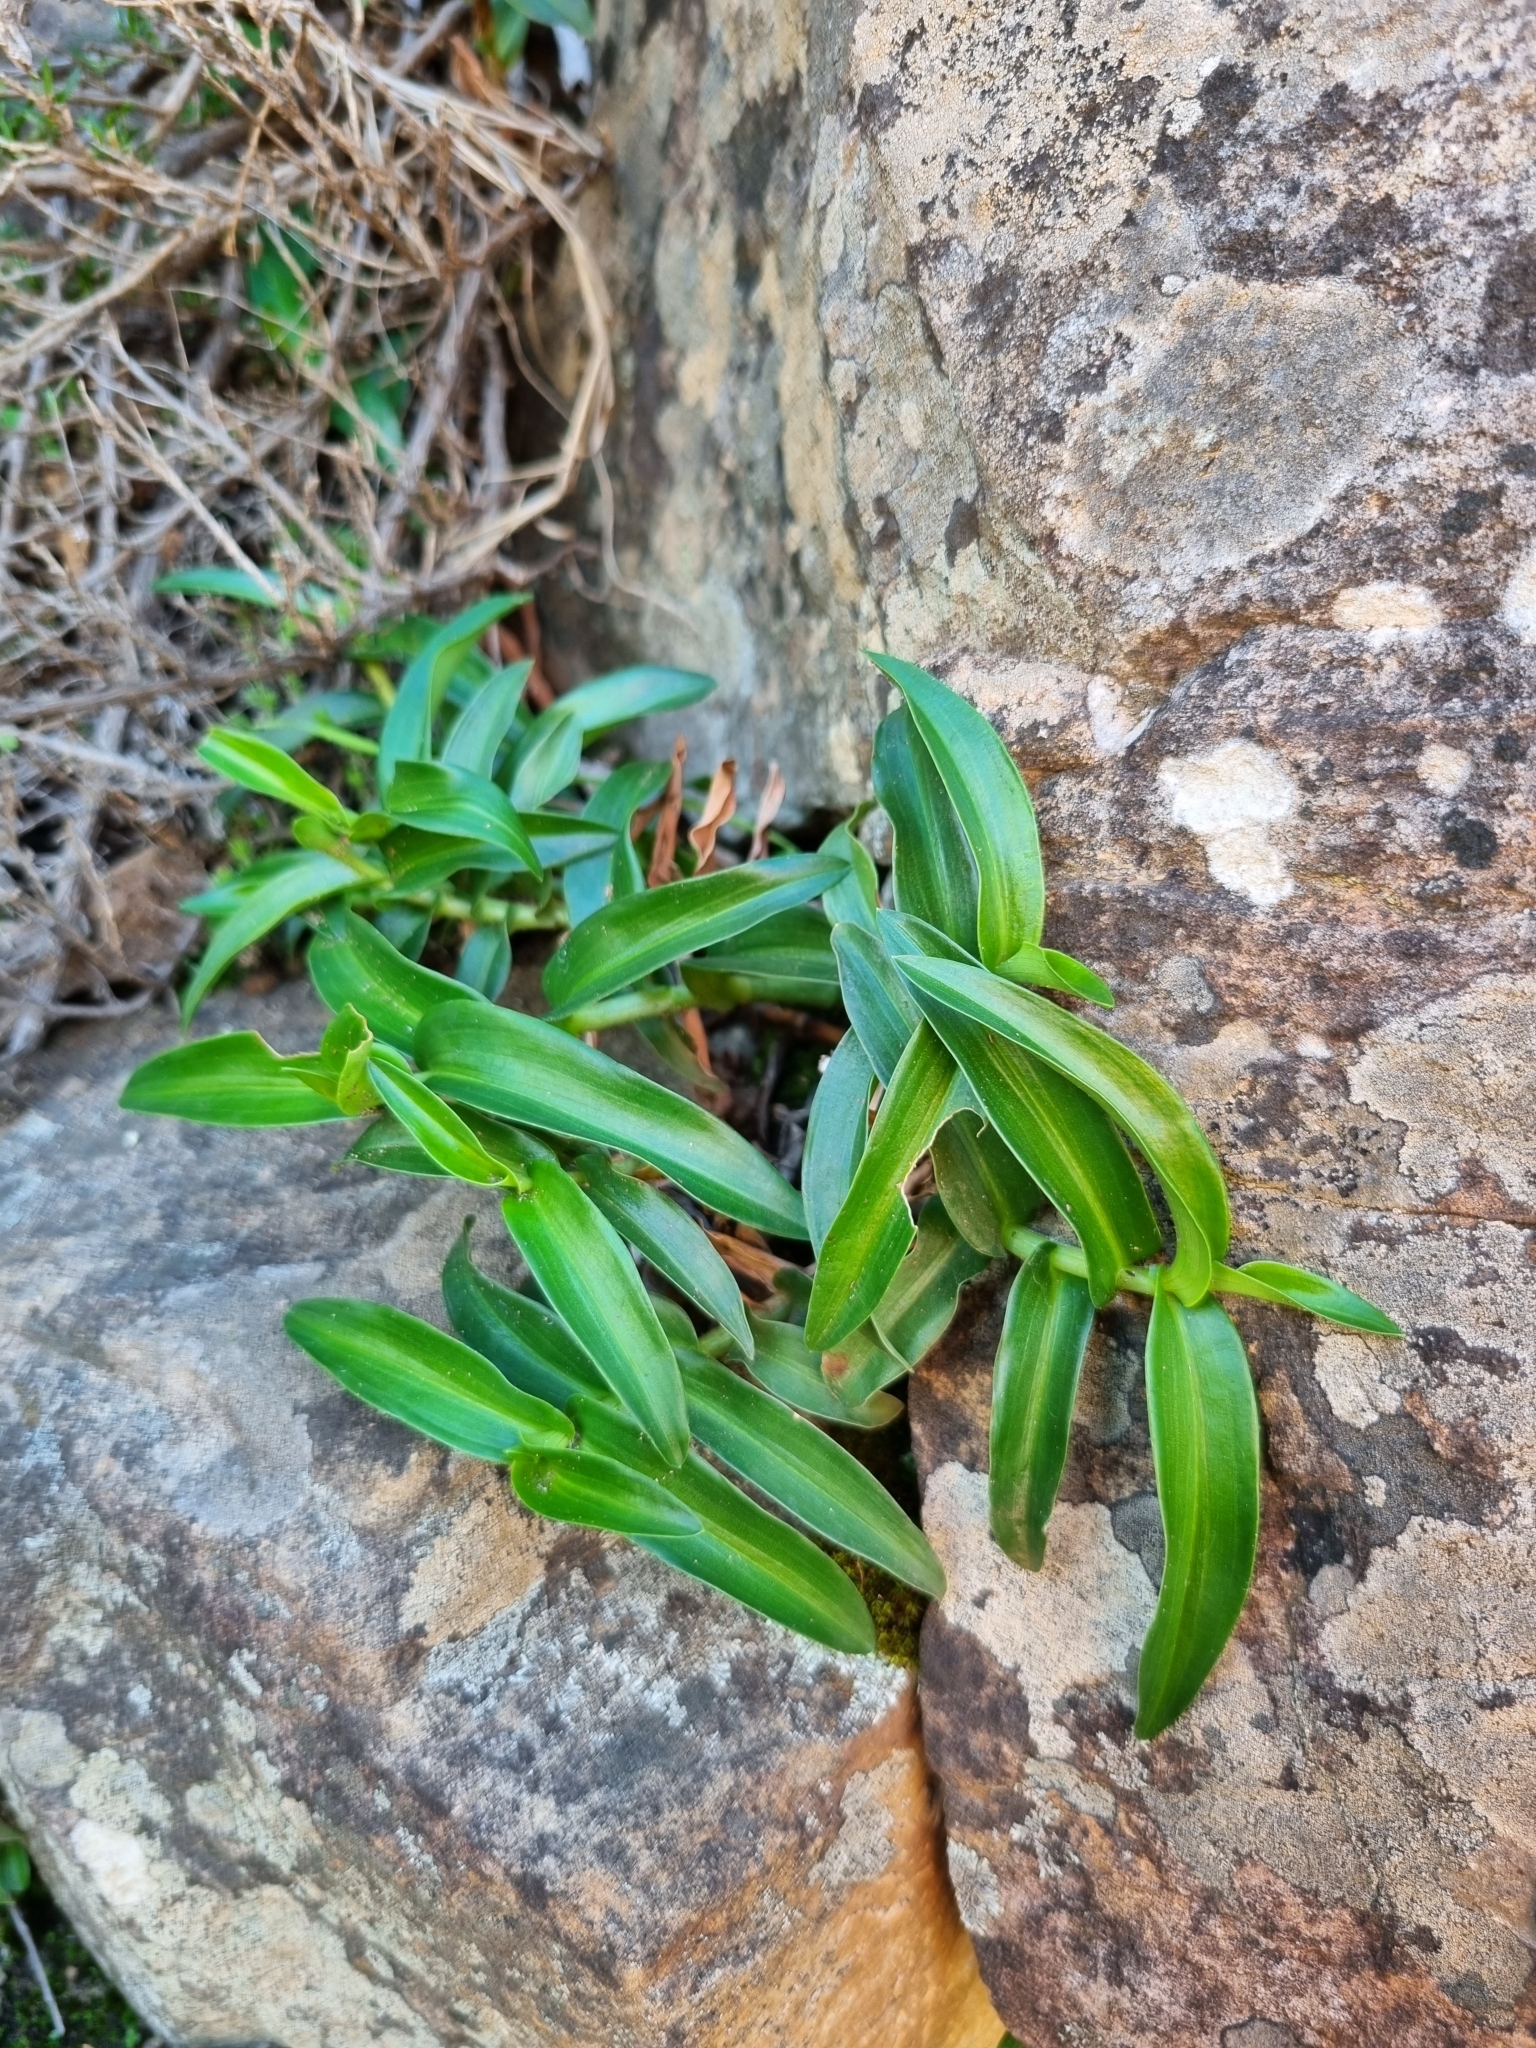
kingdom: Plantae
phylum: Tracheophyta
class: Liliopsida
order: Commelinales
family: Commelinaceae
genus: Commelina
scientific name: Commelina africana
